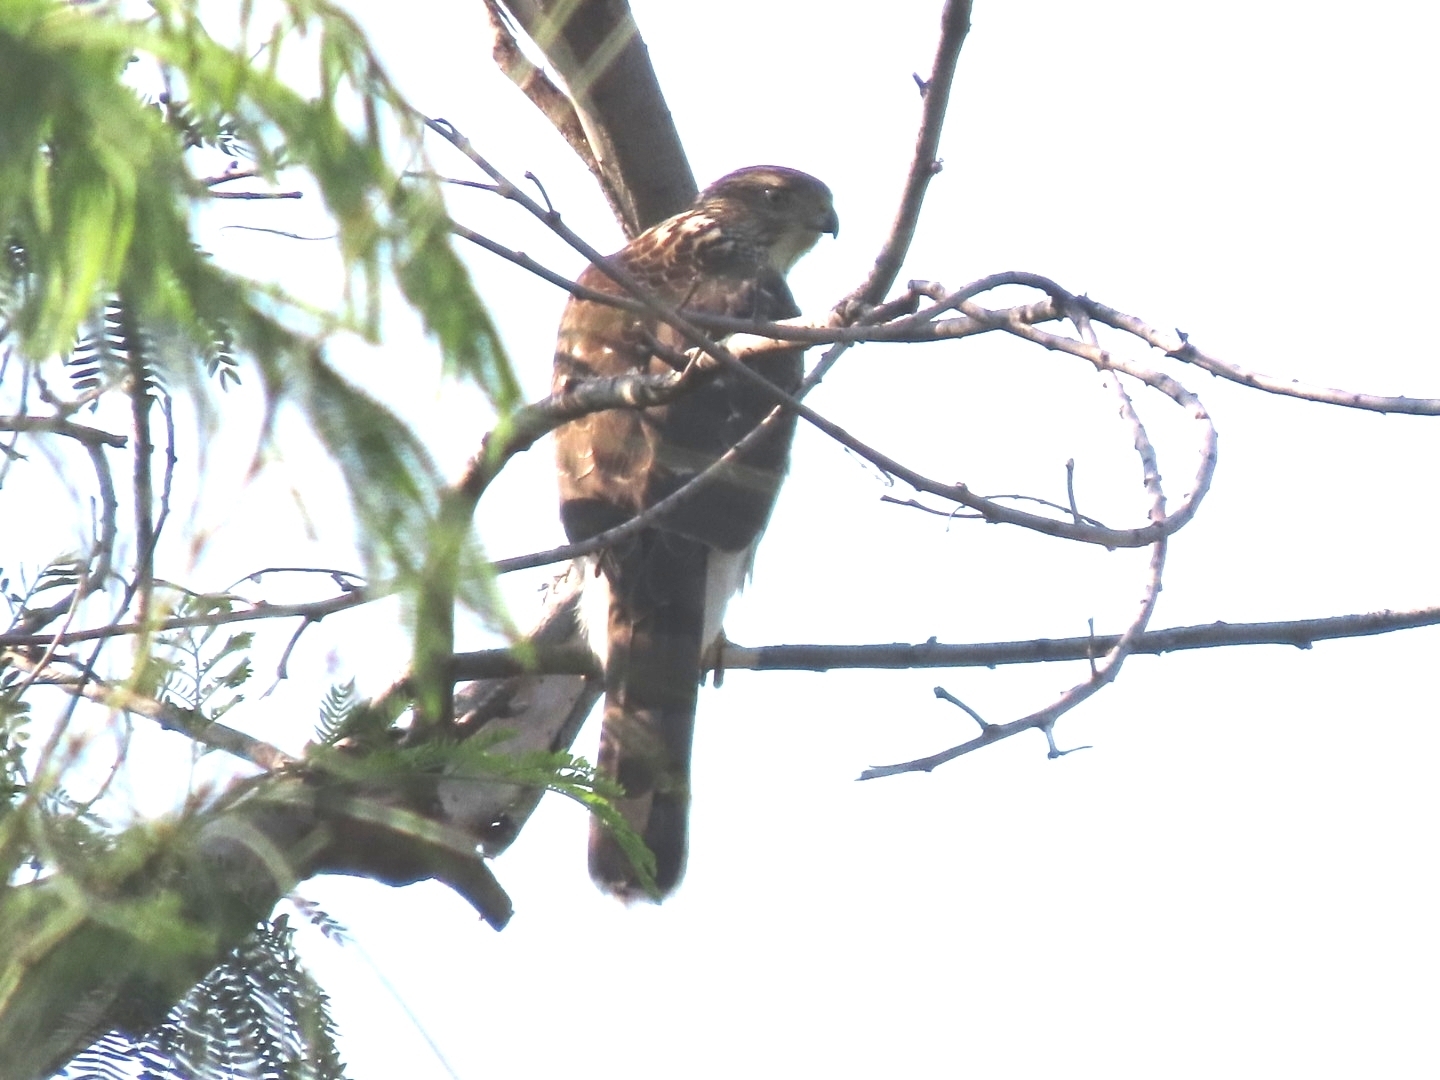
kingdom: Animalia
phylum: Chordata
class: Aves
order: Accipitriformes
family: Accipitridae
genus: Accipiter
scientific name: Accipiter cooperii
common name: Cooper's hawk
